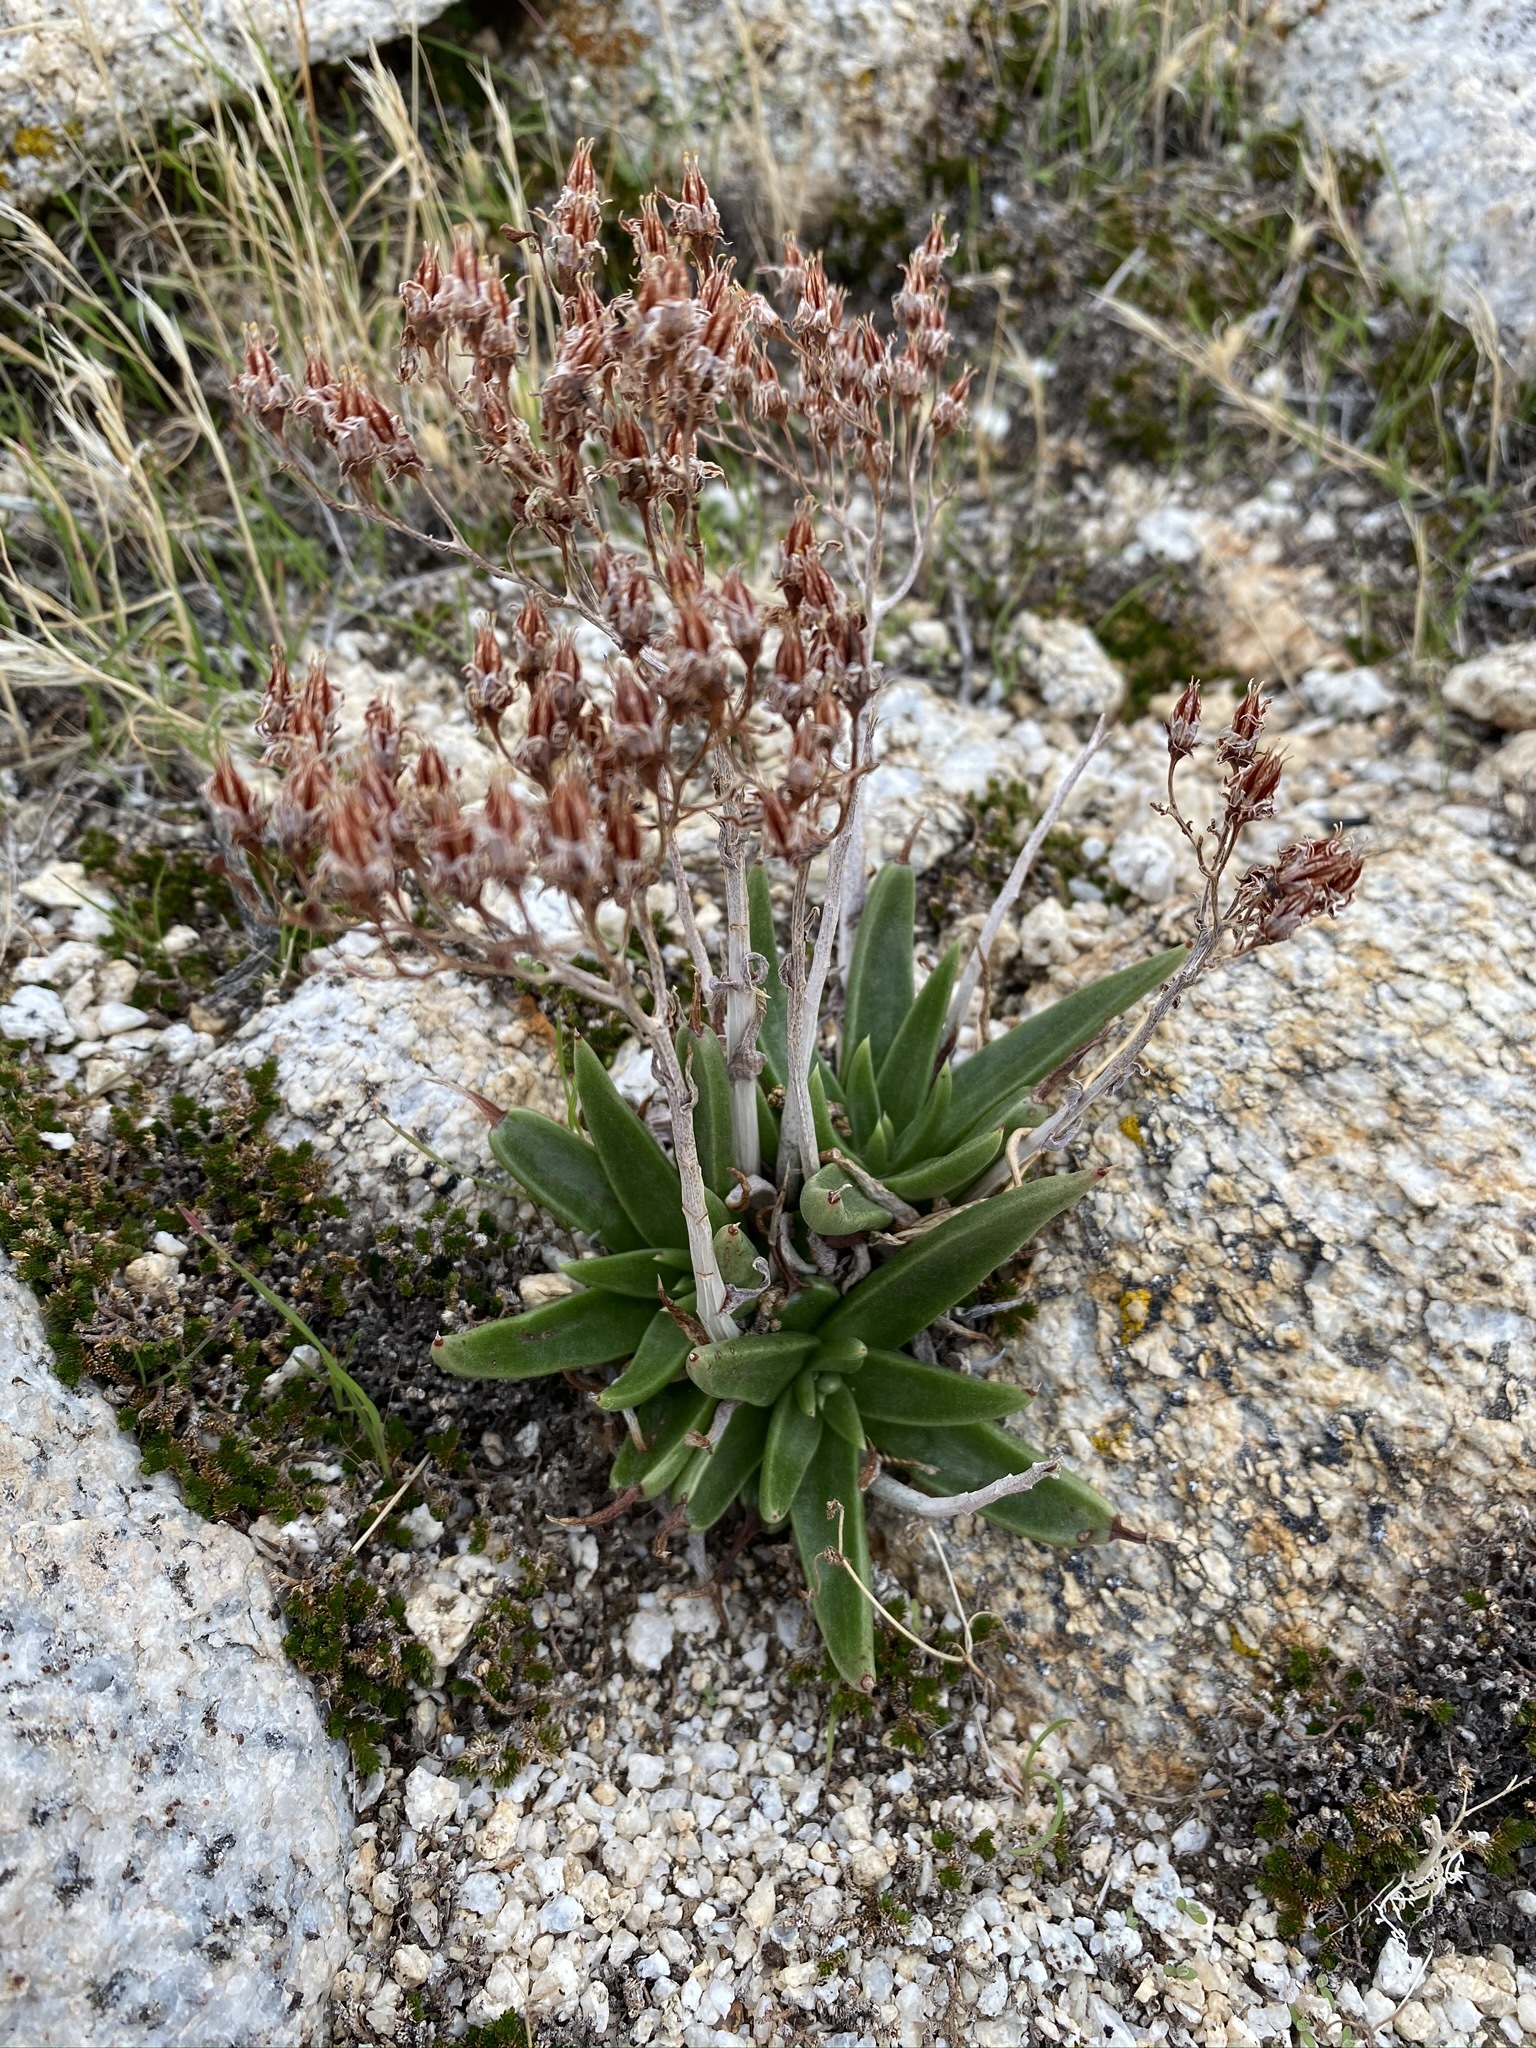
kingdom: Plantae
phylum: Tracheophyta
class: Magnoliopsida
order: Saxifragales
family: Crassulaceae
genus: Dudleya
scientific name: Dudleya saxosa
